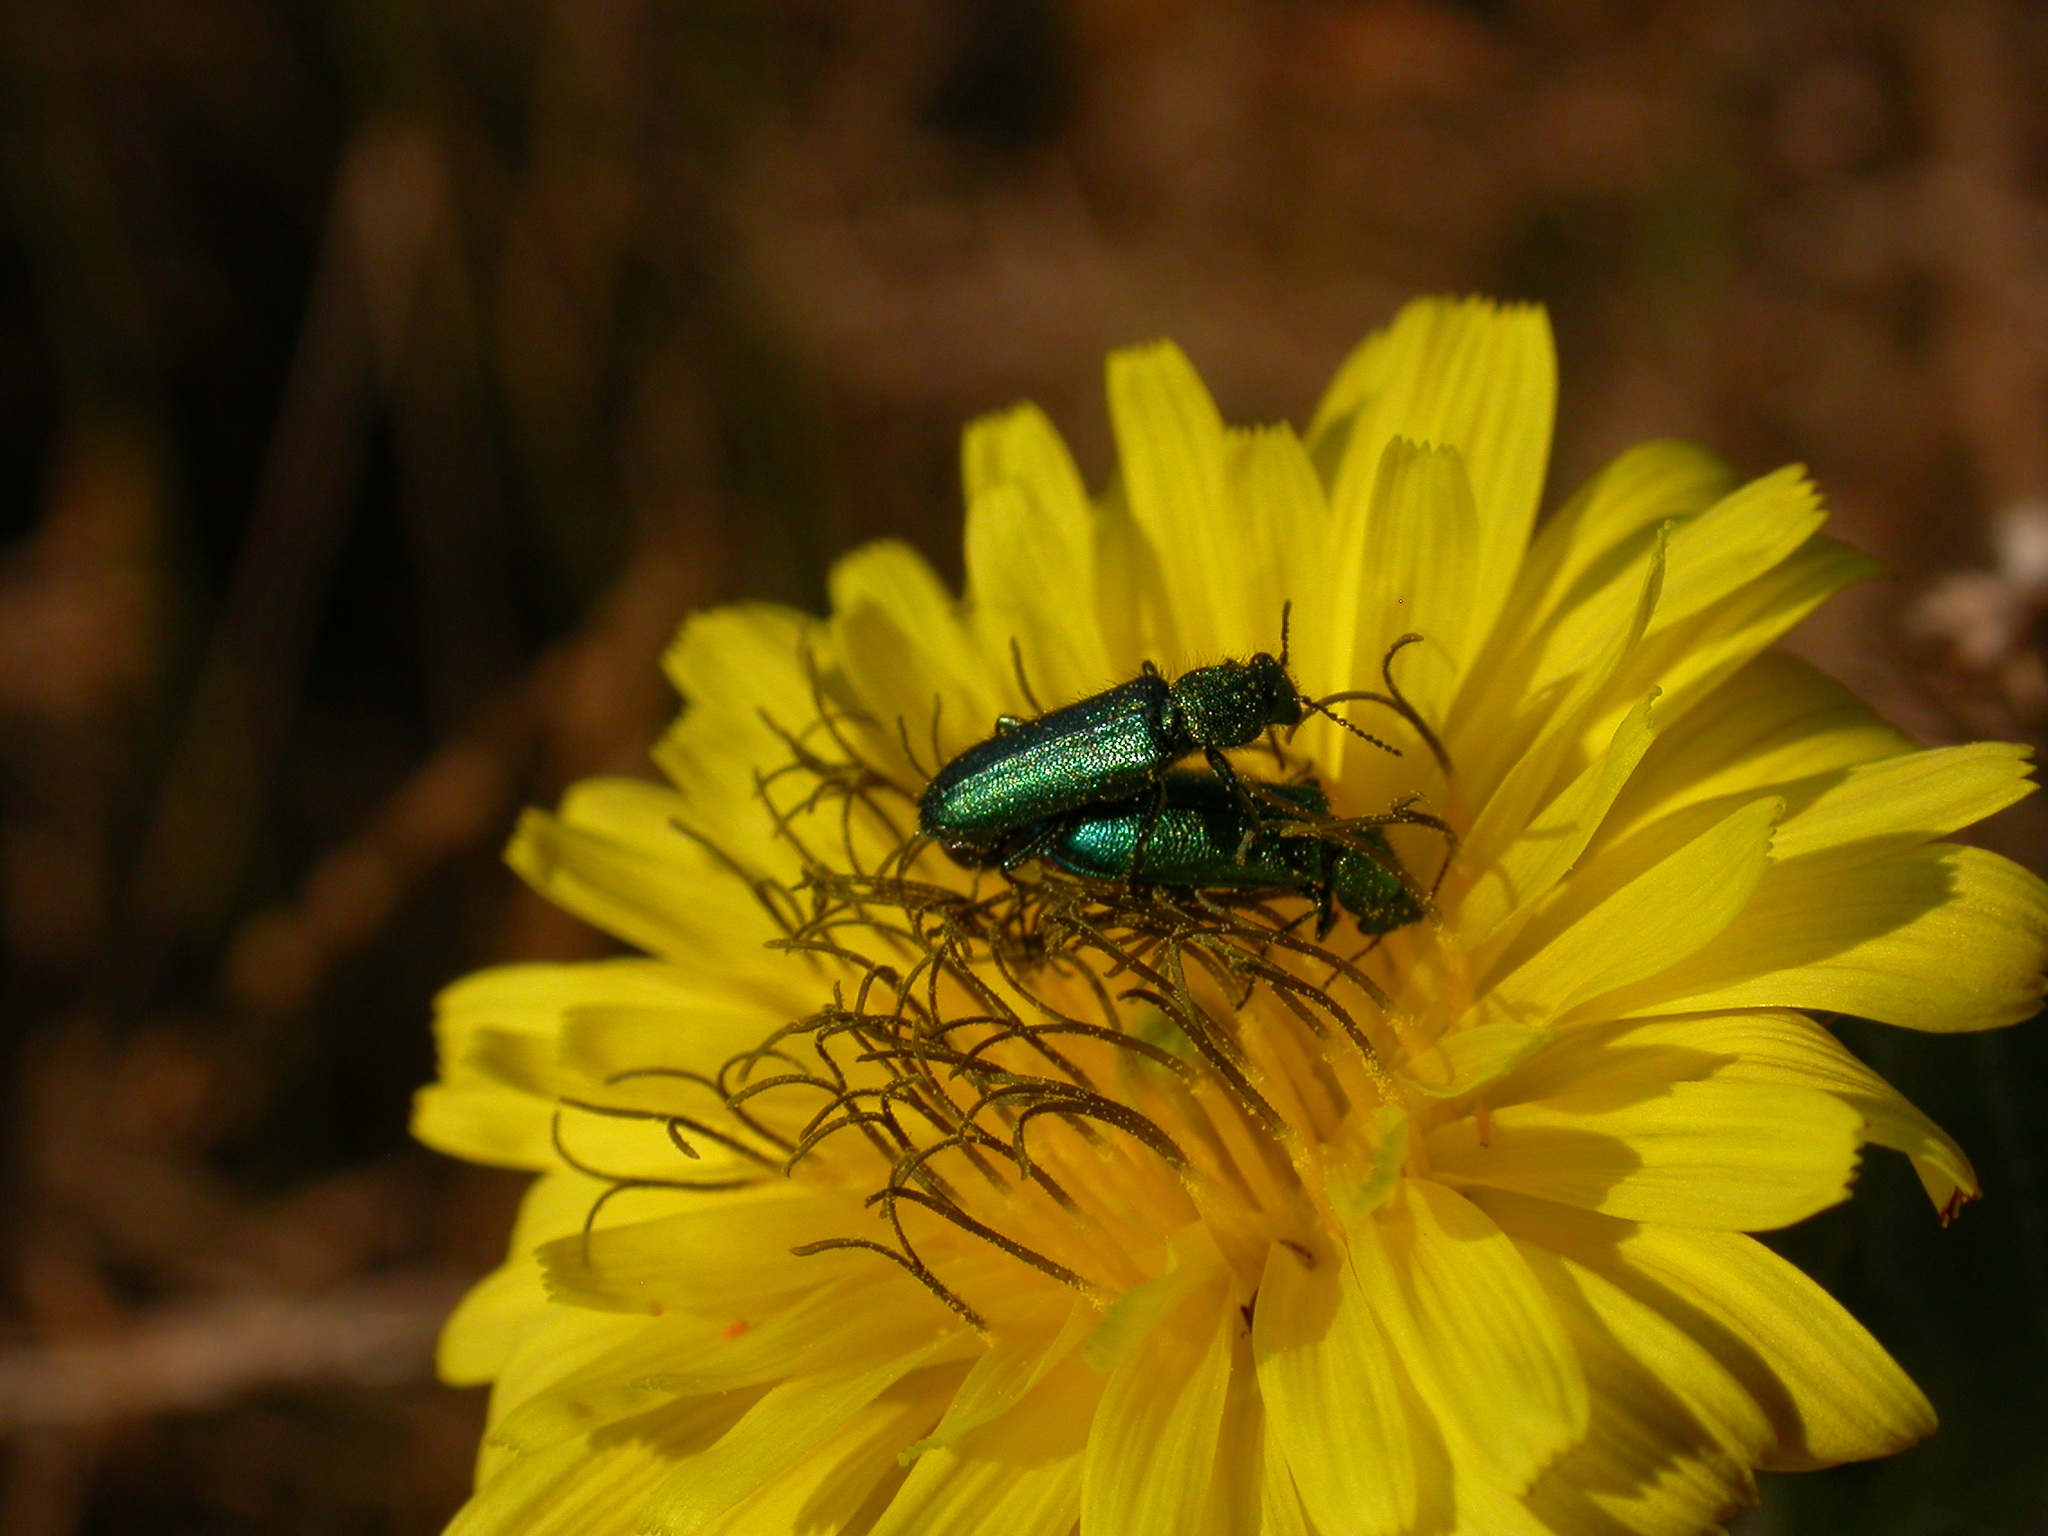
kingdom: Animalia
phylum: Arthropoda
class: Insecta
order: Coleoptera
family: Dasytidae
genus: Psilothrix
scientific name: Psilothrix viridicoerulea
